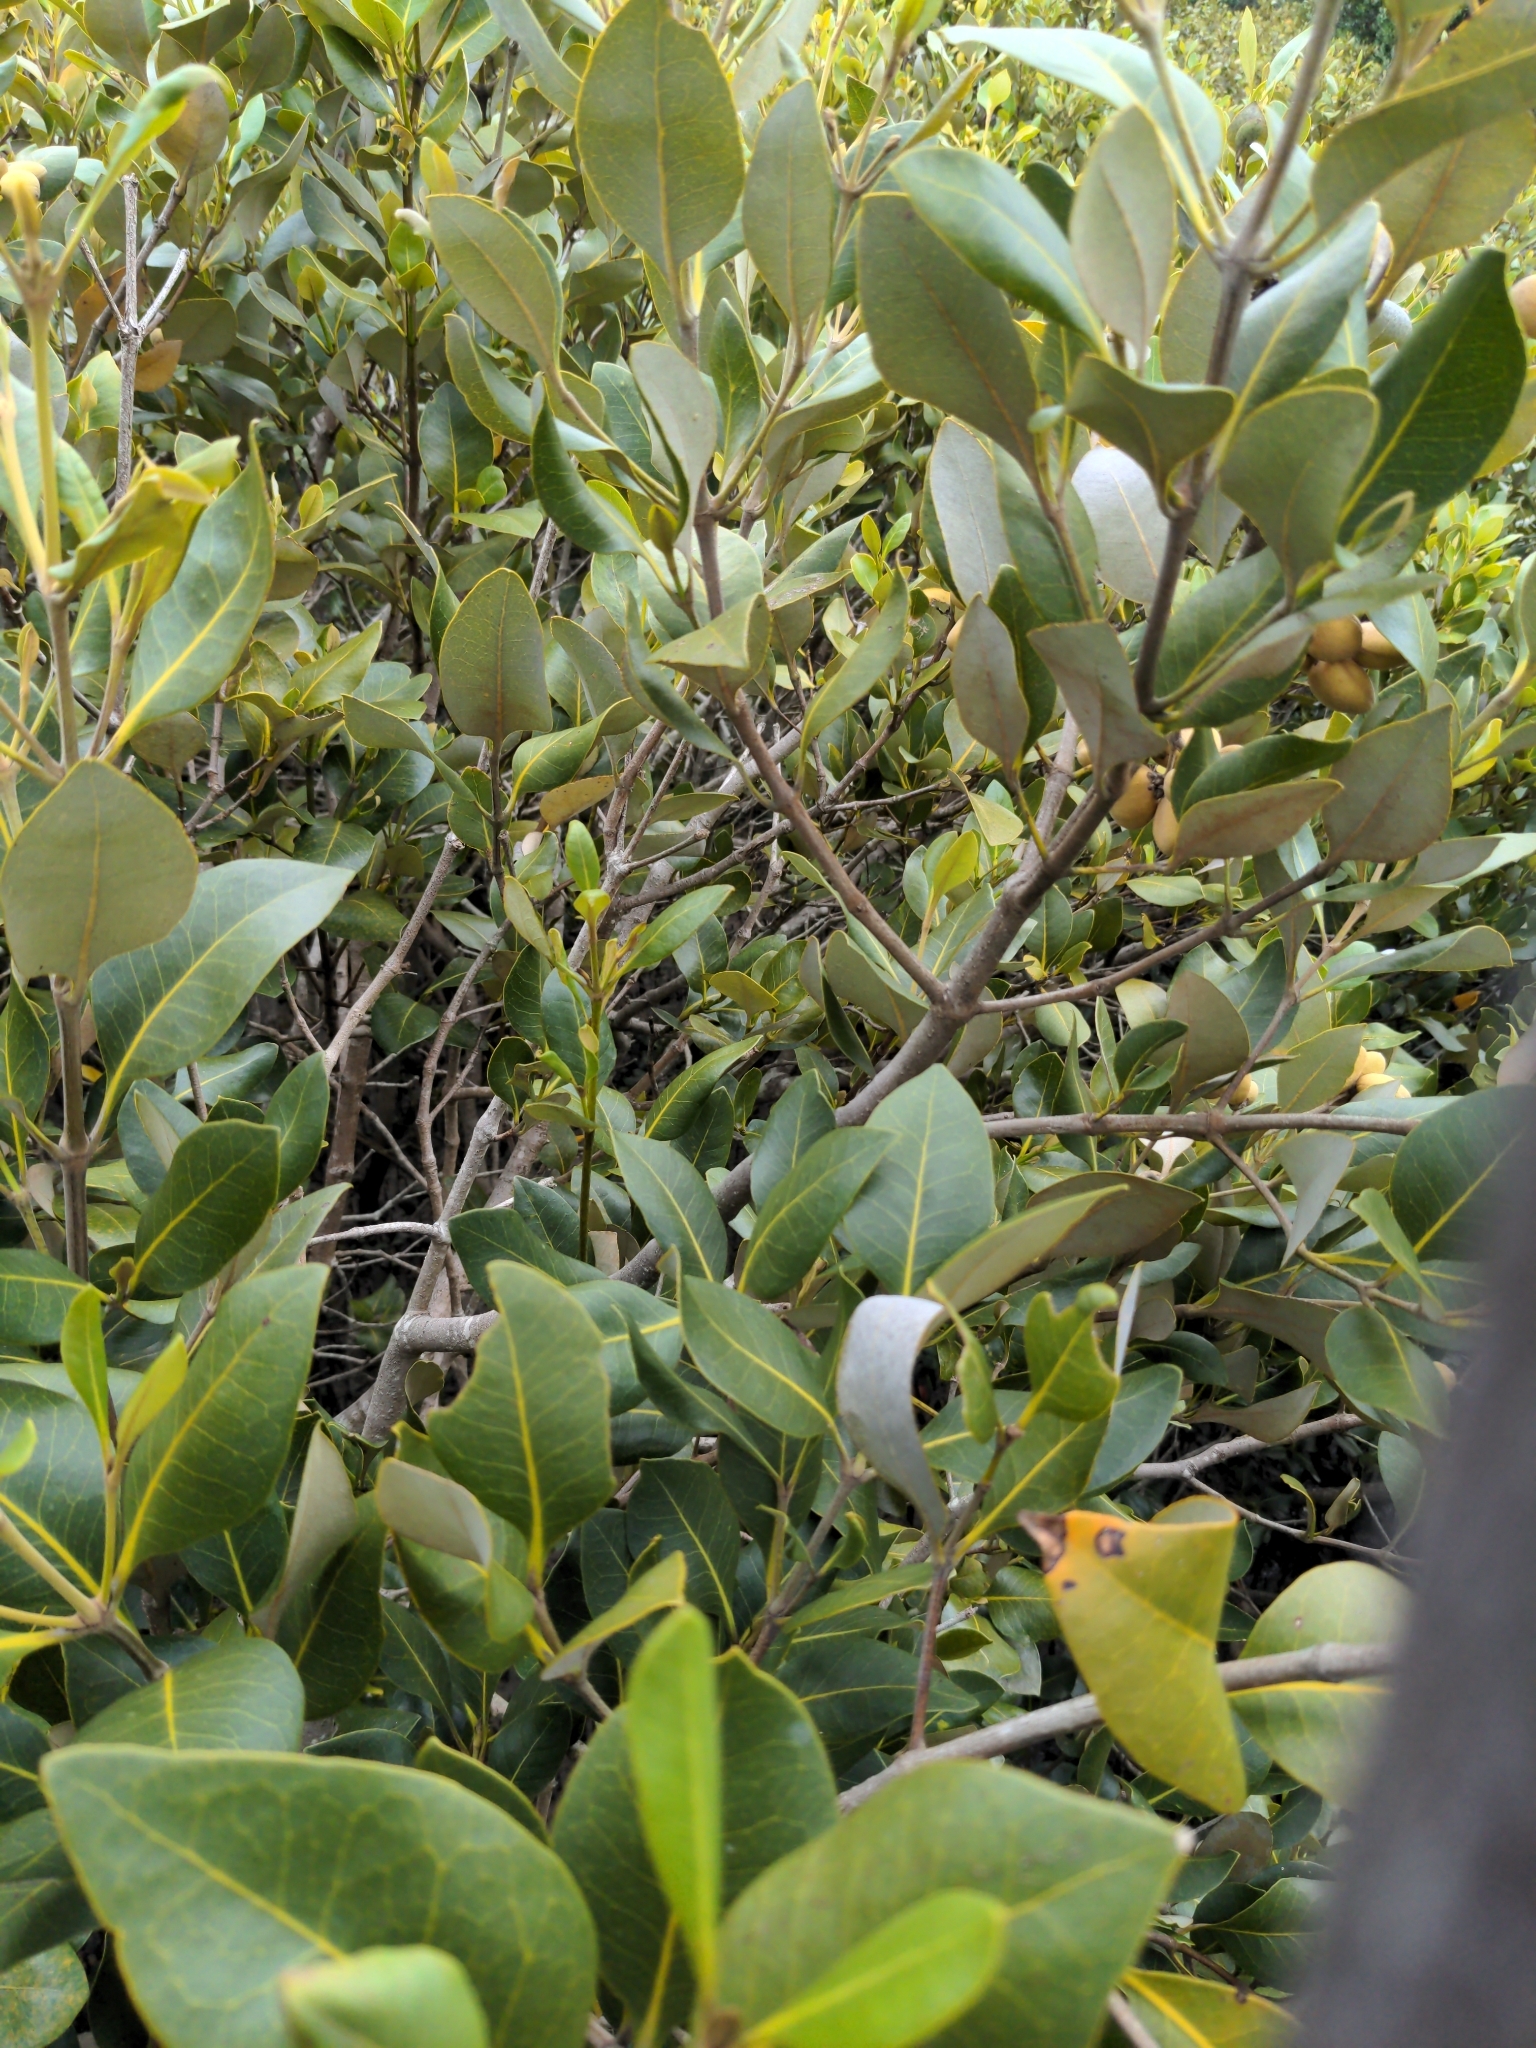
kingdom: Plantae
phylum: Tracheophyta
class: Magnoliopsida
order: Lamiales
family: Acanthaceae
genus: Avicennia
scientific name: Avicennia marina
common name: Gray mangrove
